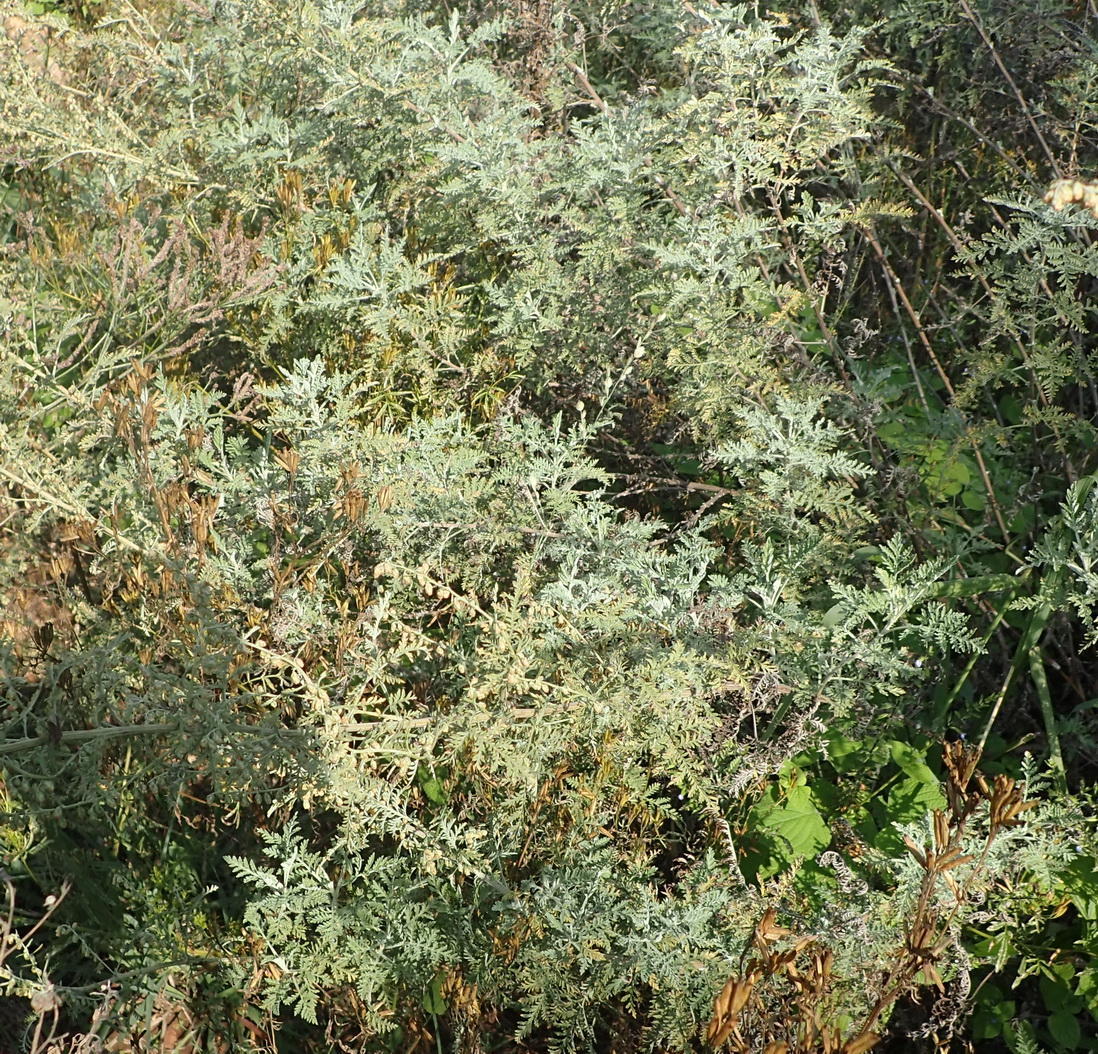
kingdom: Plantae
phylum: Tracheophyta
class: Magnoliopsida
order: Asterales
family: Asteraceae
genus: Artemisia
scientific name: Artemisia afra
